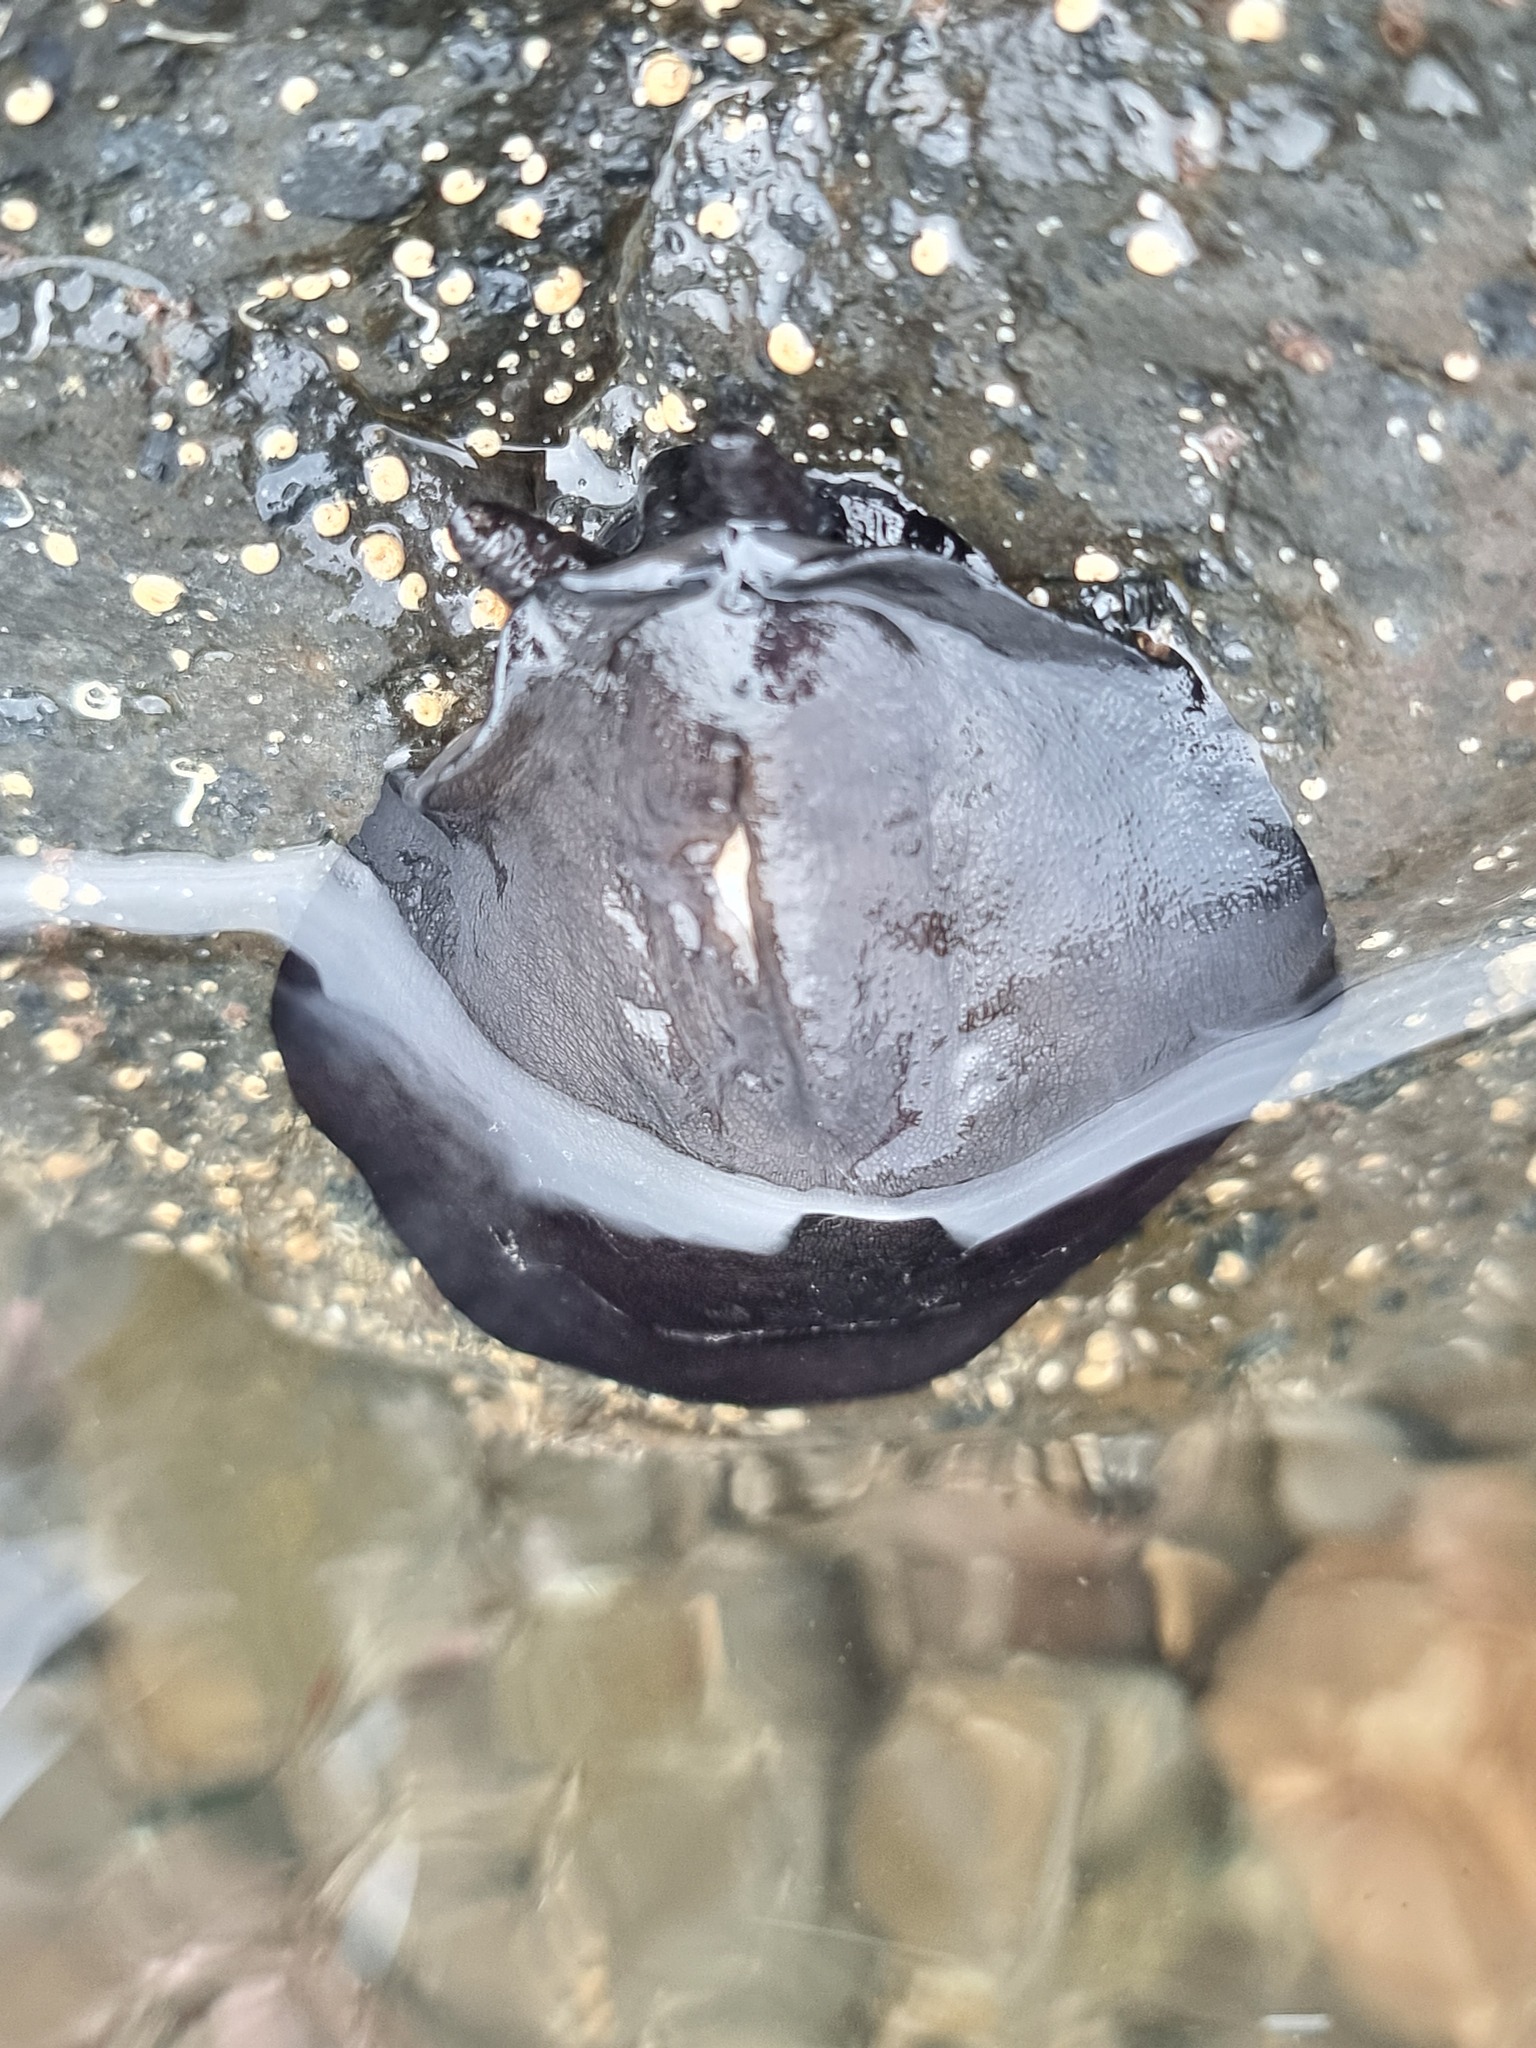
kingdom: Animalia
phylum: Mollusca
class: Gastropoda
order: Lepetellida
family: Fissurellidae
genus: Scutus
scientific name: Scutus breviculus
